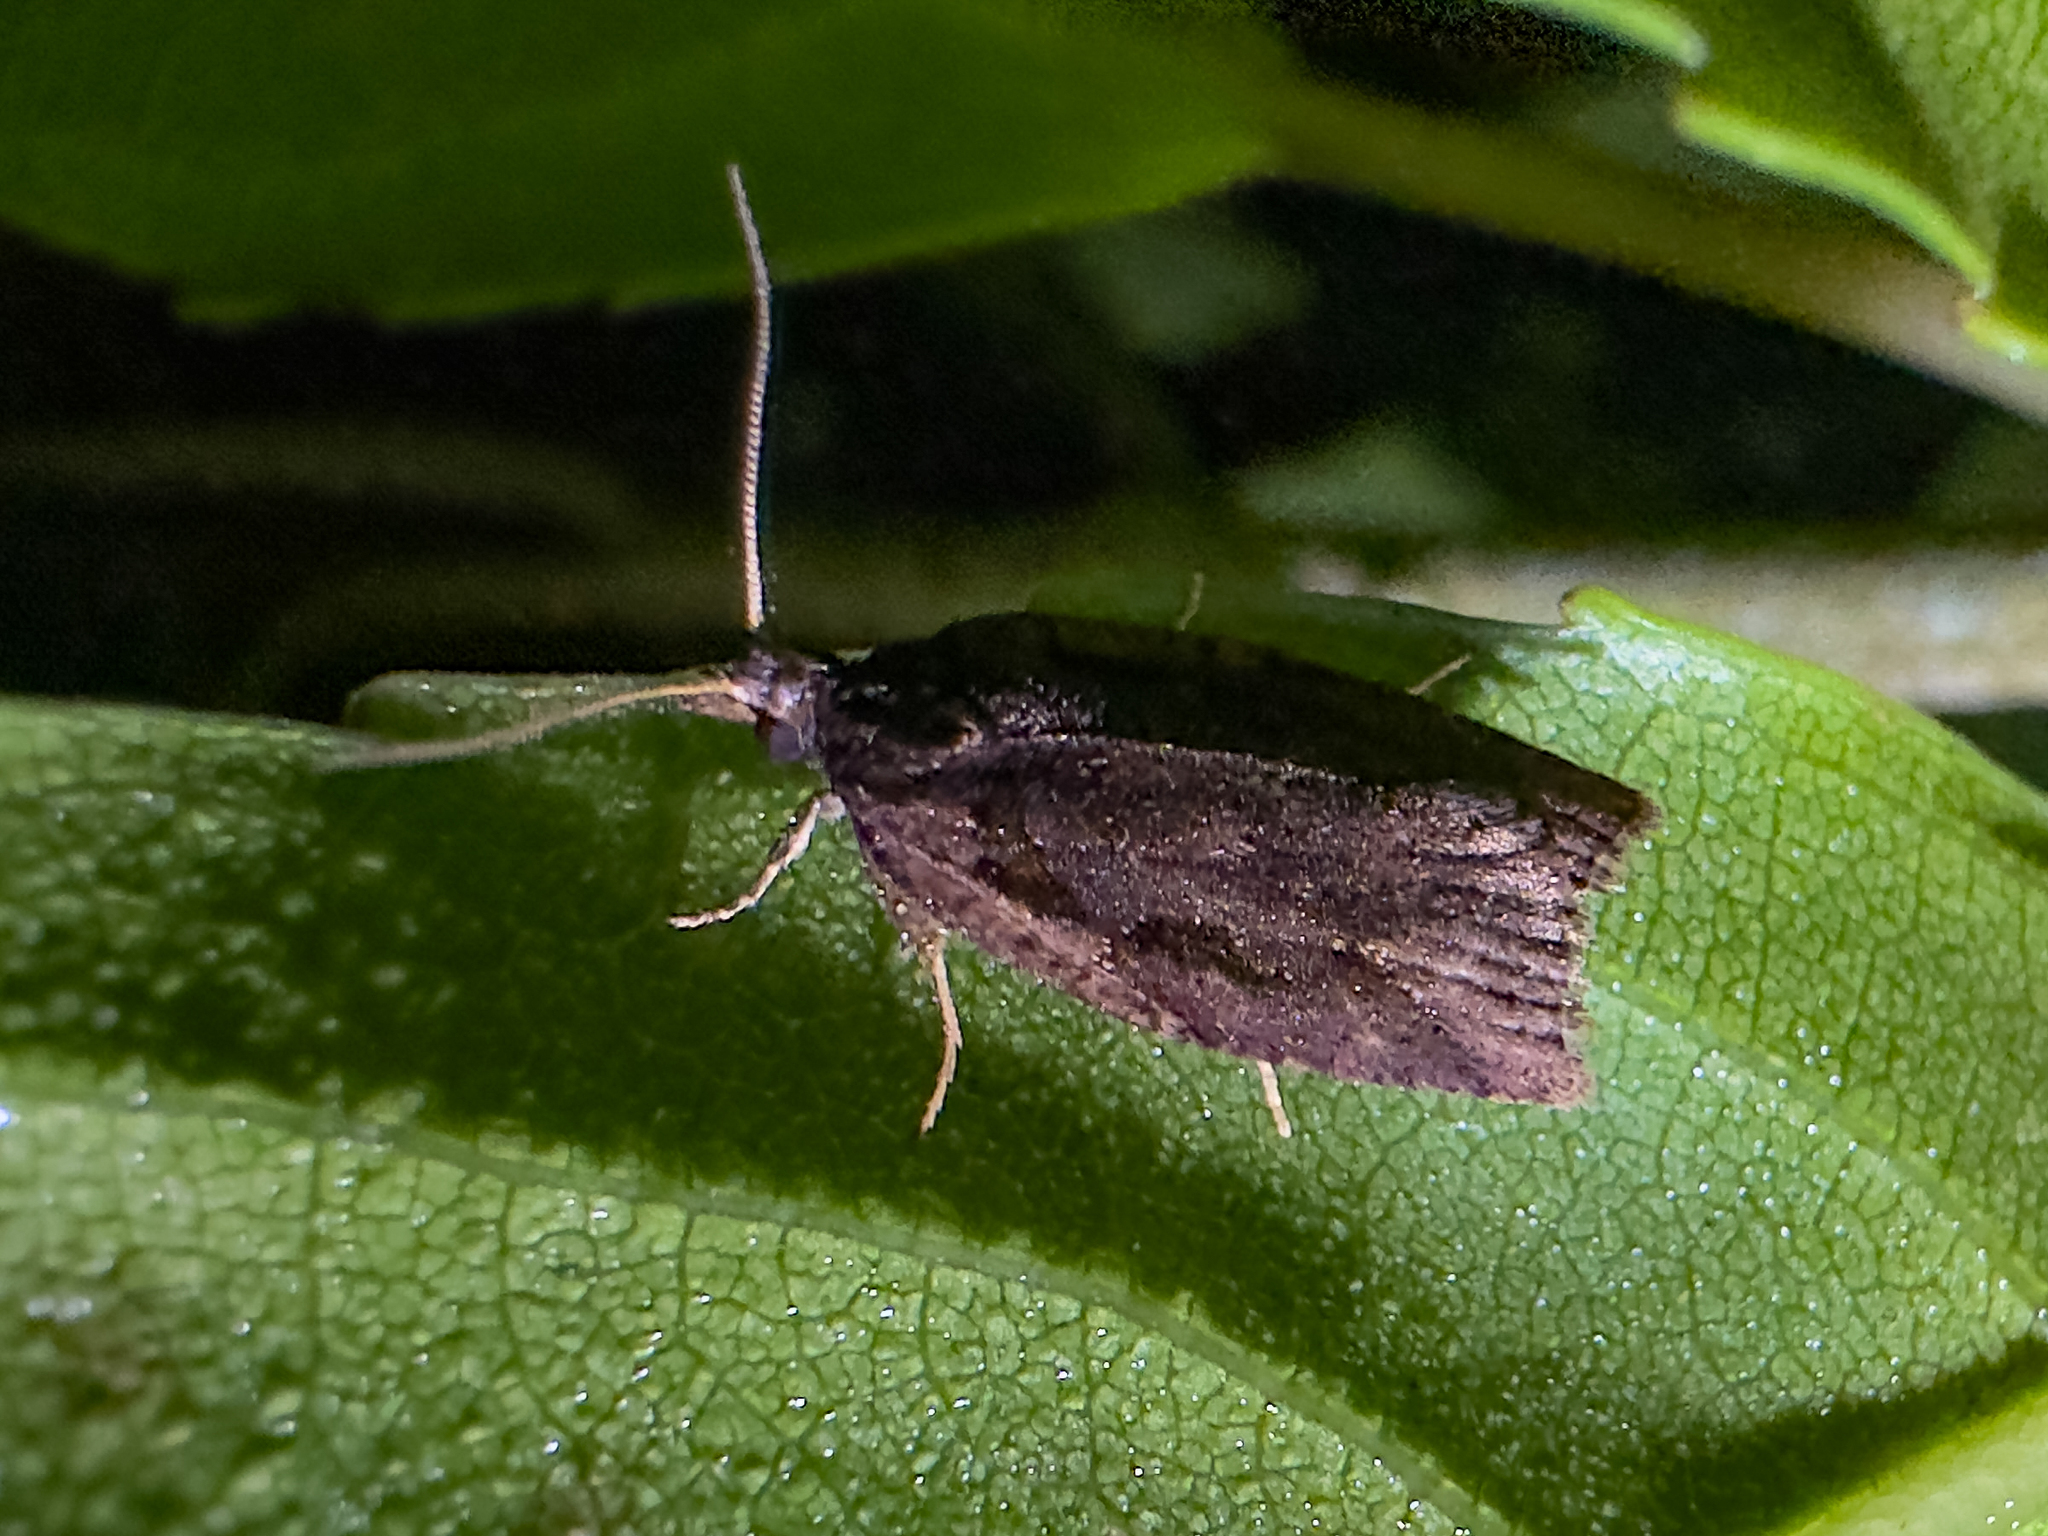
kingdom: Animalia
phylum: Arthropoda
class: Insecta
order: Lepidoptera
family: Tortricidae
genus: Ctenopseustis
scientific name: Ctenopseustis fraterna
